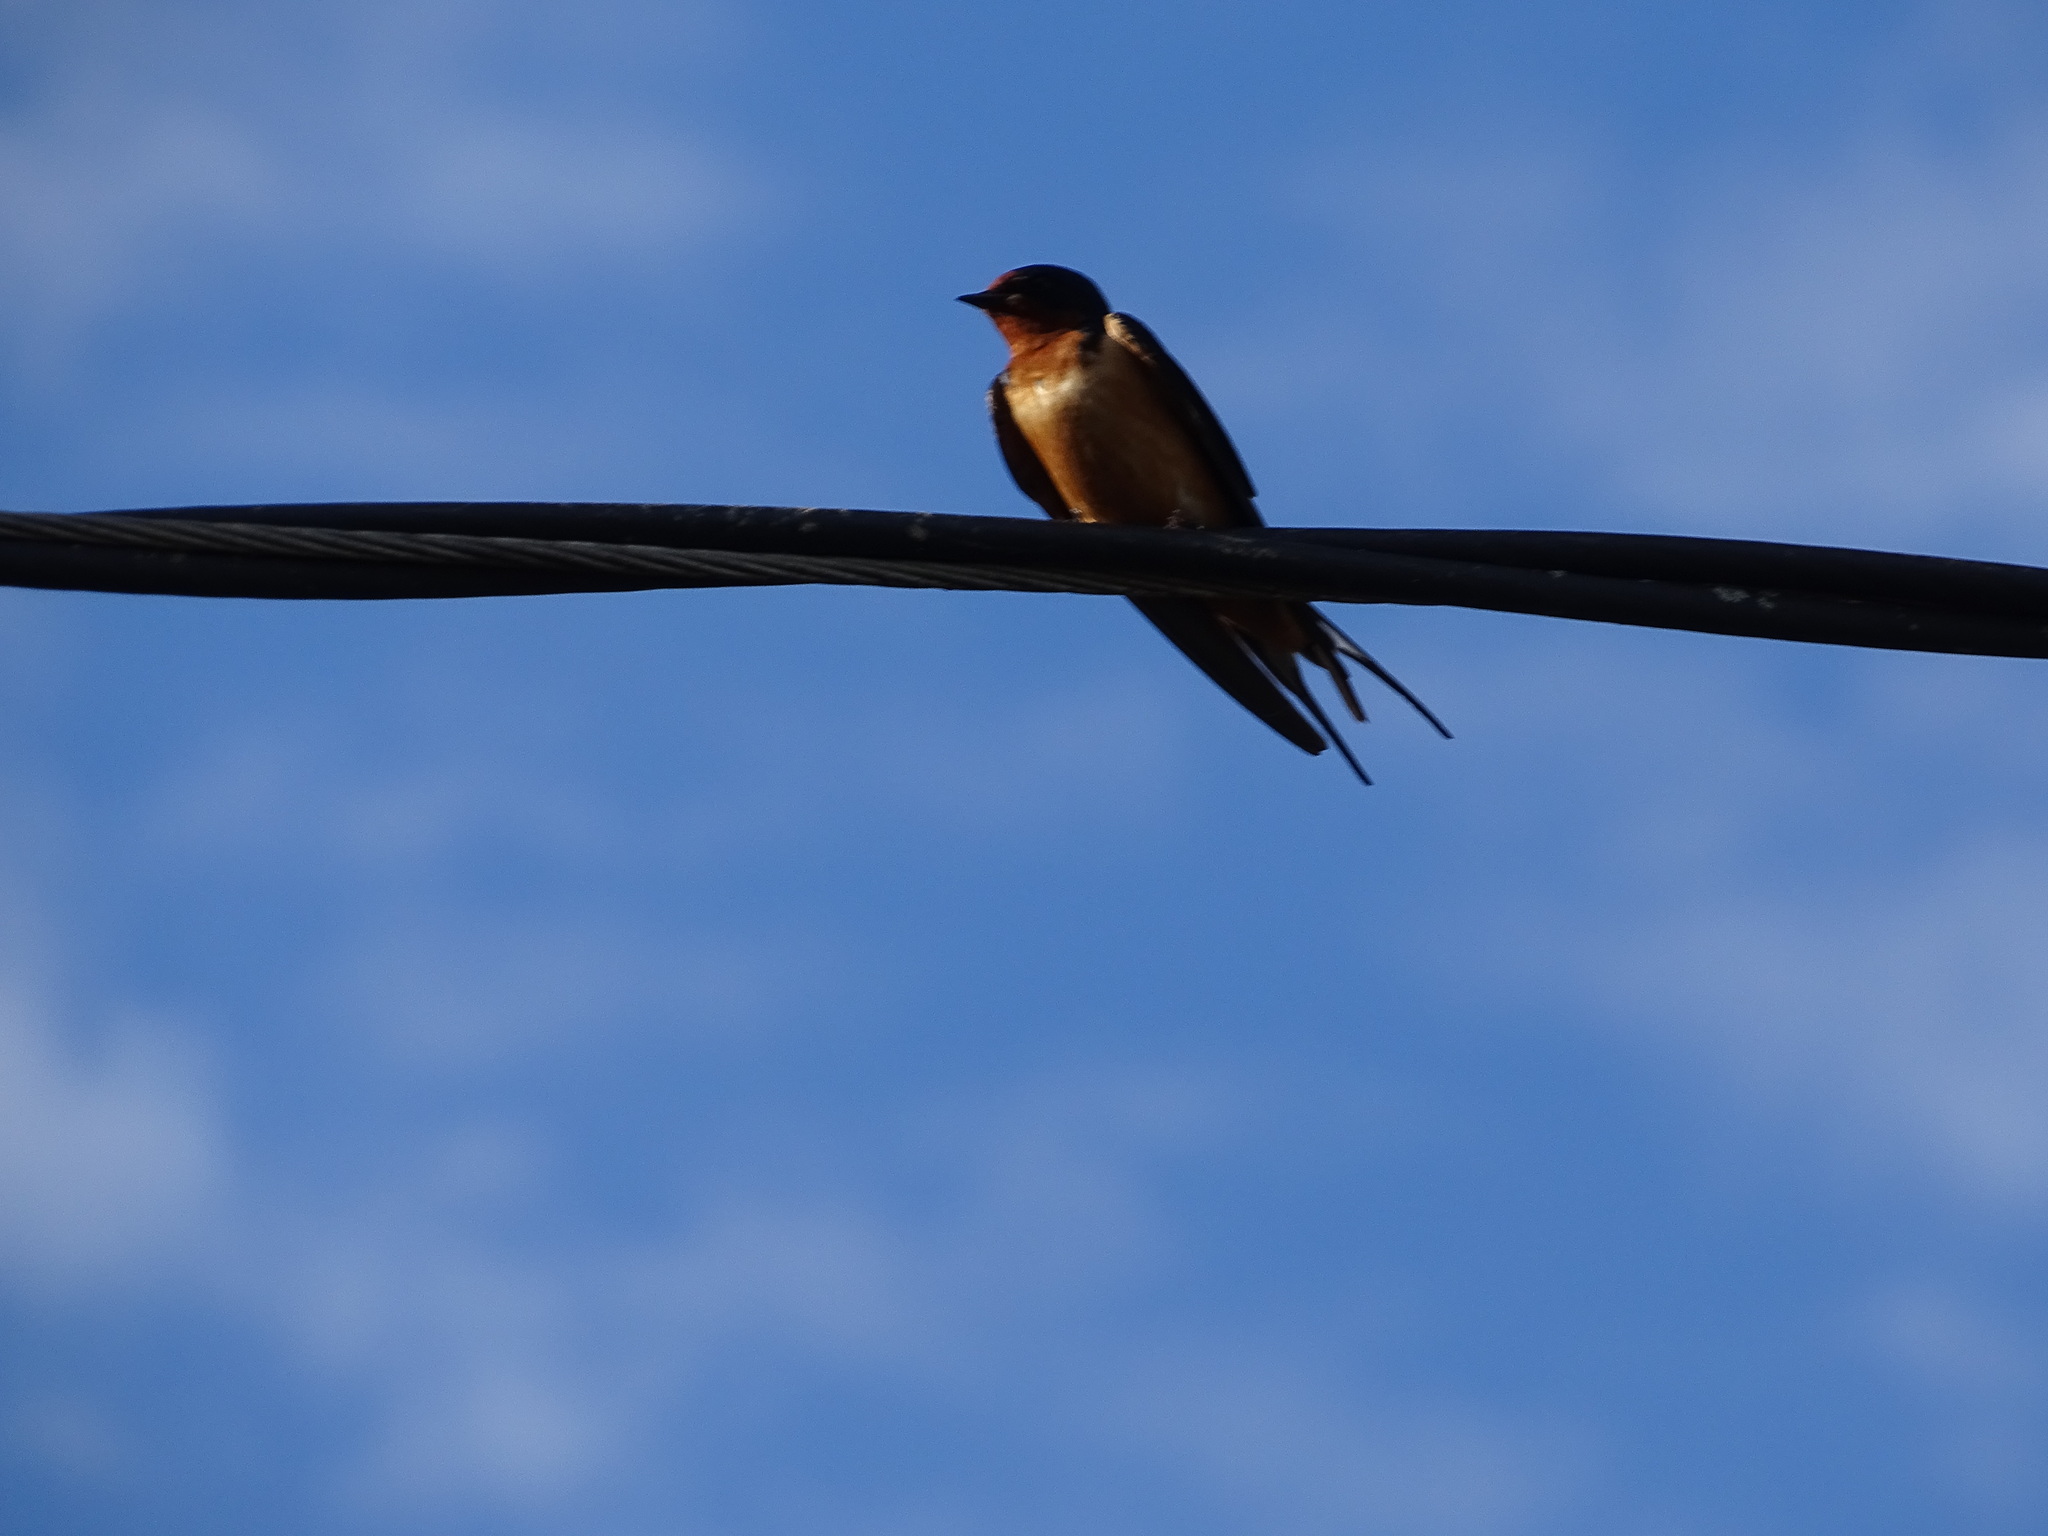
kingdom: Animalia
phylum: Chordata
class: Aves
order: Passeriformes
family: Hirundinidae
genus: Hirundo
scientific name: Hirundo rustica
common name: Barn swallow
